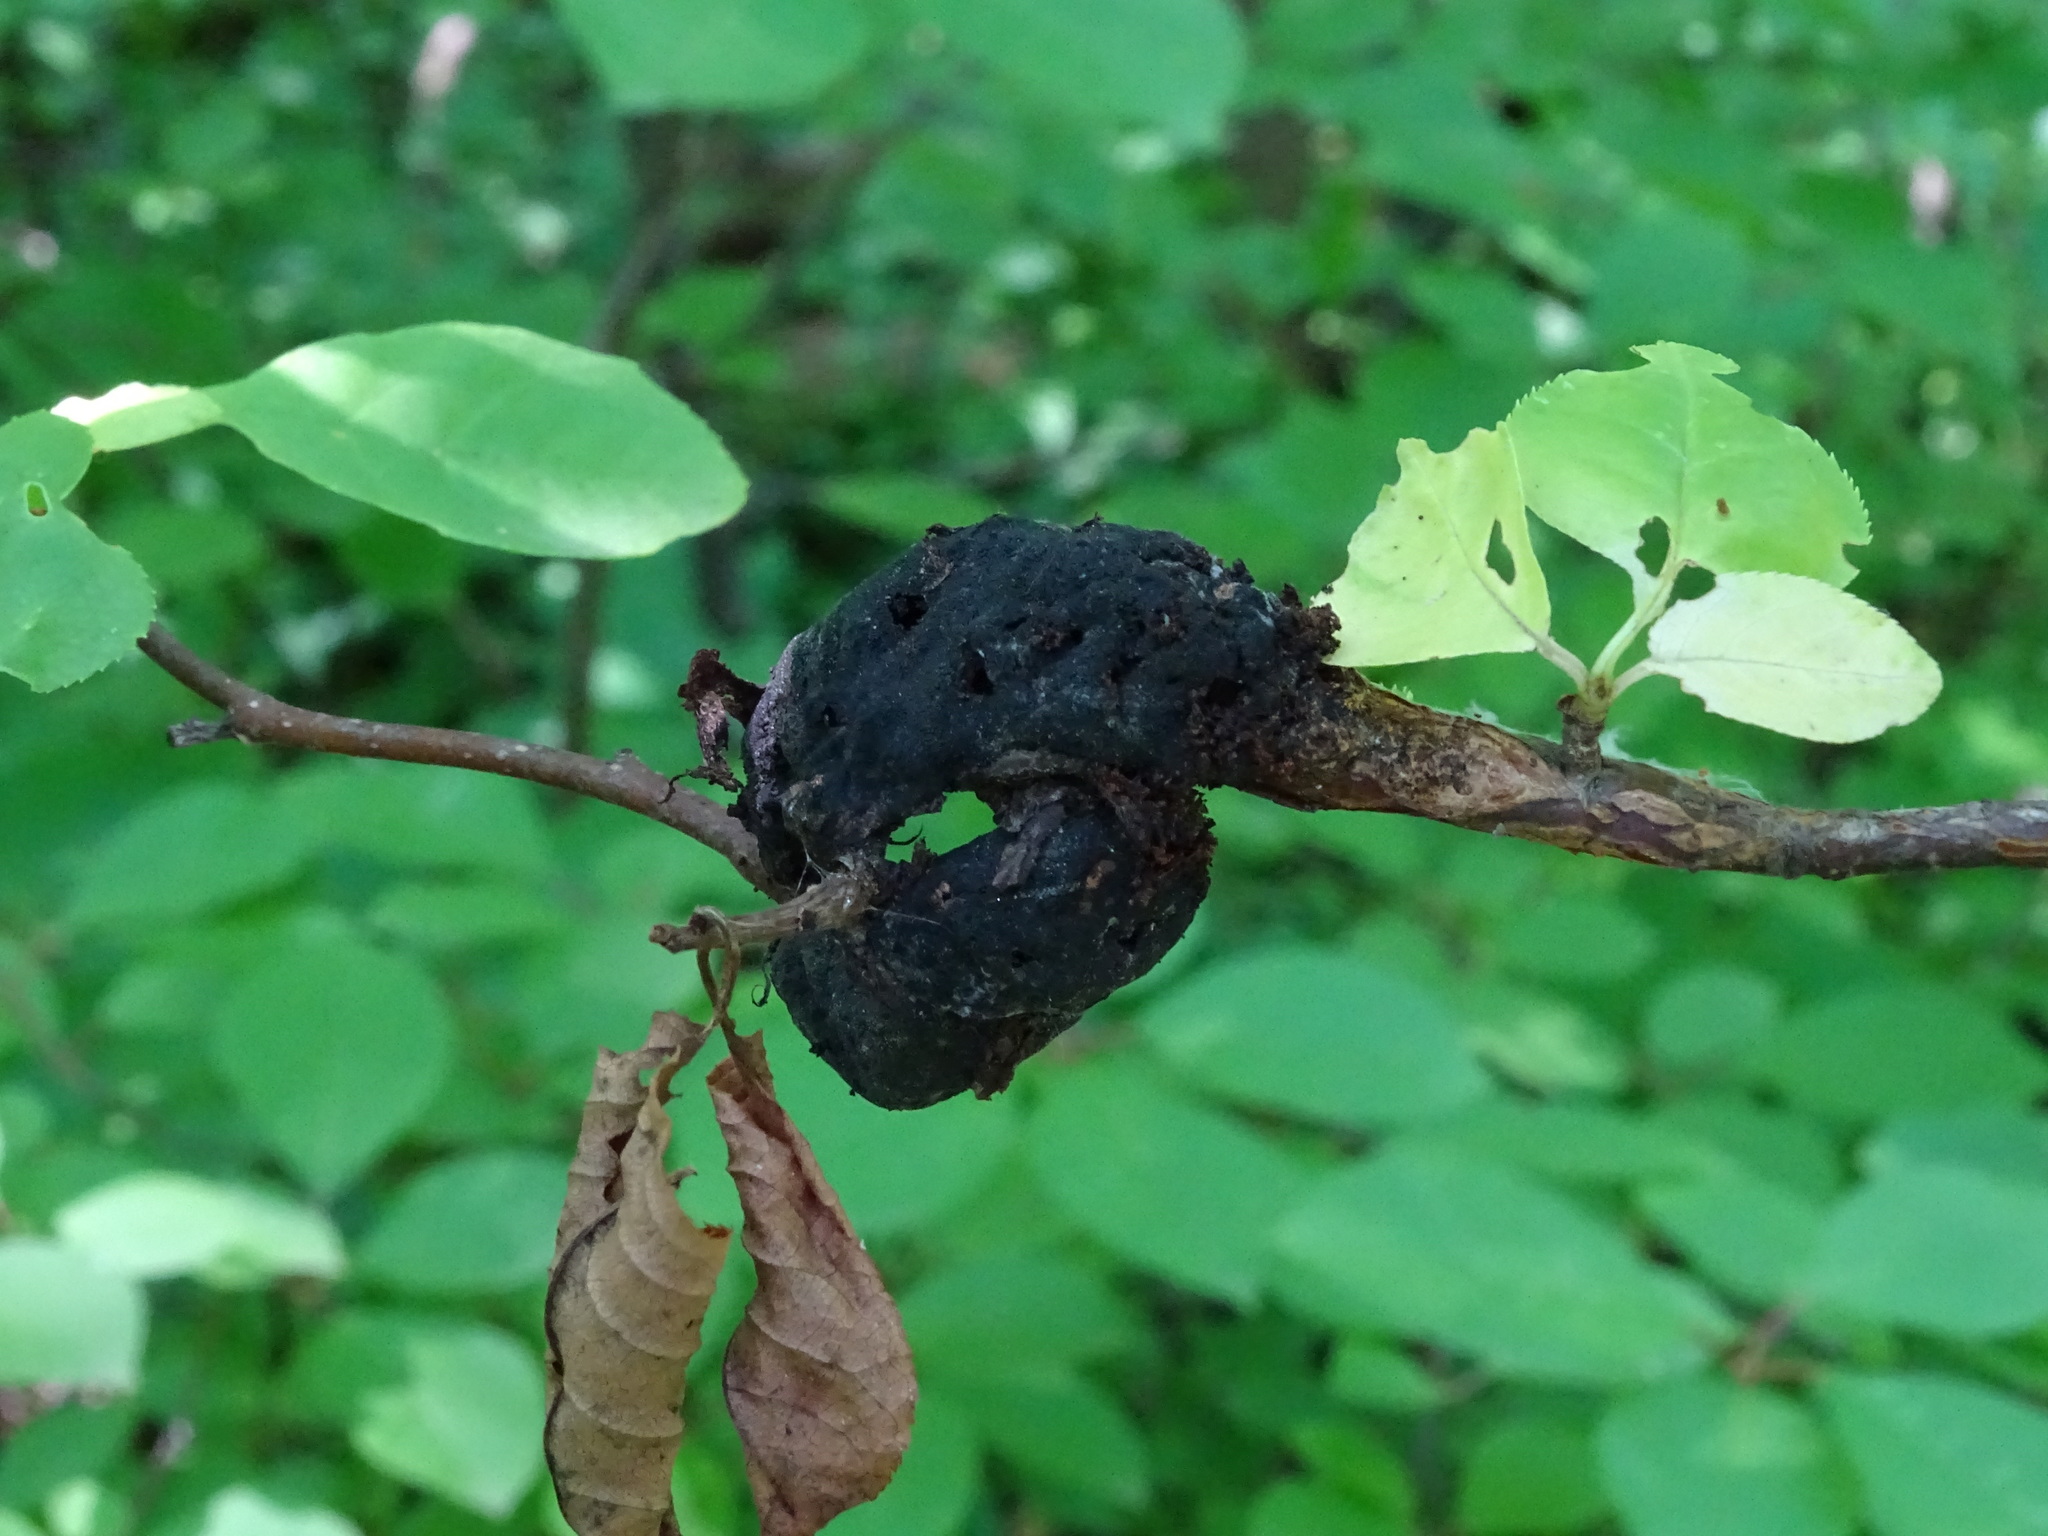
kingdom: Fungi
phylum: Ascomycota
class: Dothideomycetes
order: Venturiales
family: Venturiaceae
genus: Apiosporina
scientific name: Apiosporina morbosa
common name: Black knot
